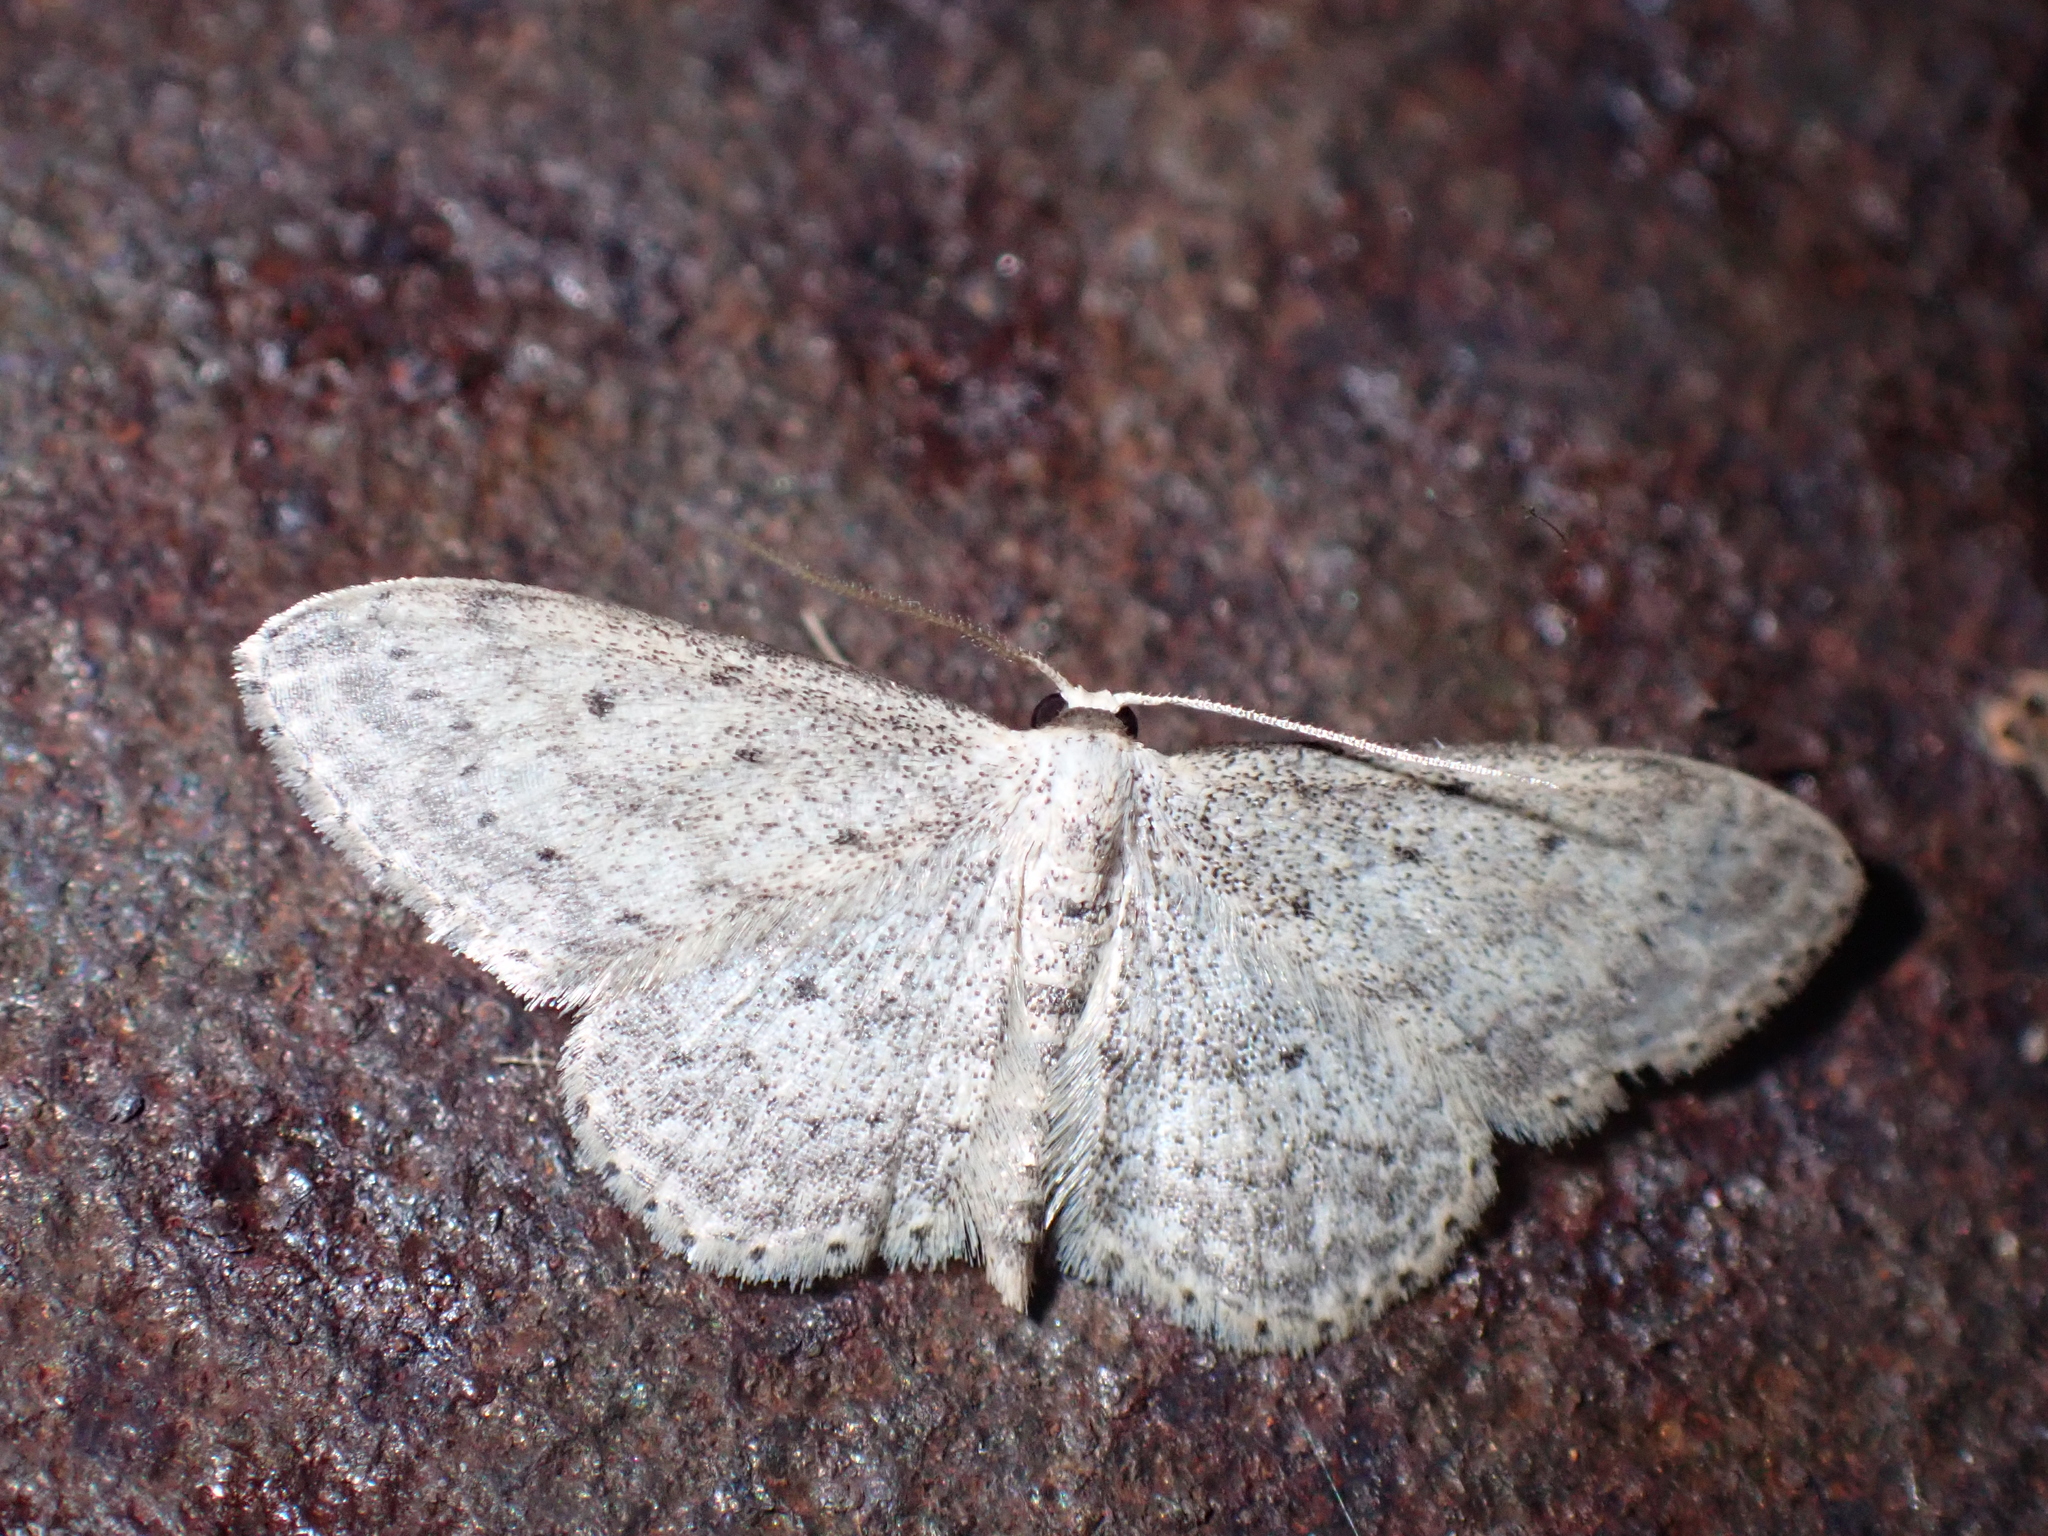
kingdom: Animalia
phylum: Arthropoda
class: Insecta
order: Lepidoptera
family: Geometridae
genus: Idaea
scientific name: Idaea seriata
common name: Small dusty wave
